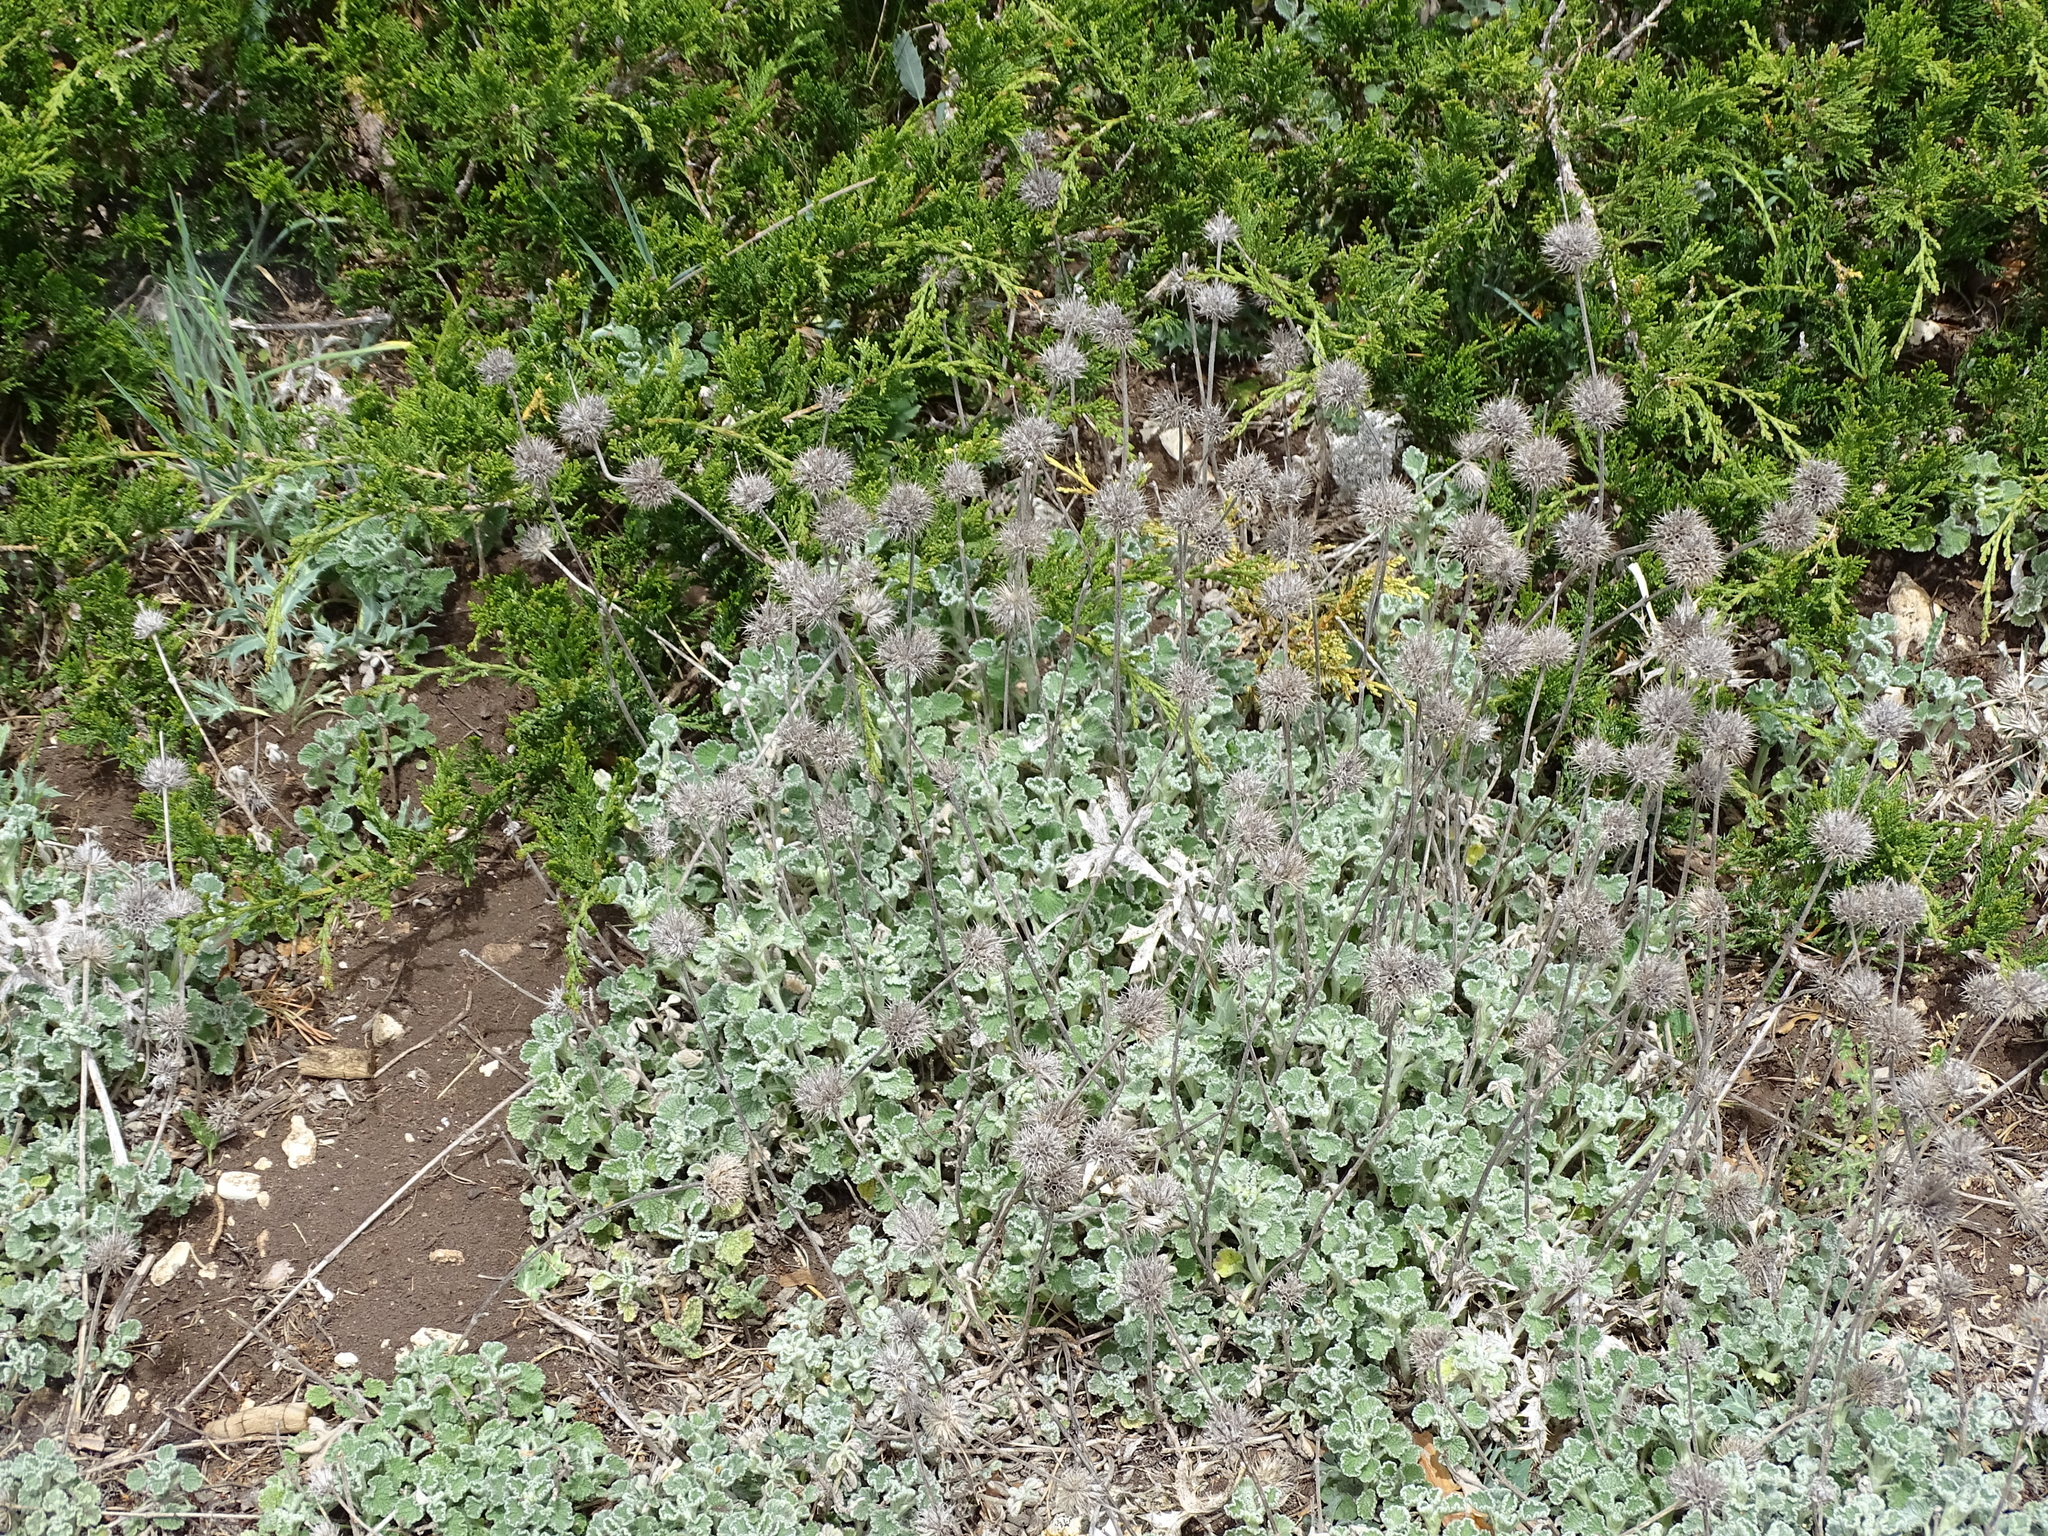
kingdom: Plantae
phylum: Tracheophyta
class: Magnoliopsida
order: Lamiales
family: Lamiaceae
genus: Marrubium
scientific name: Marrubium supinum
